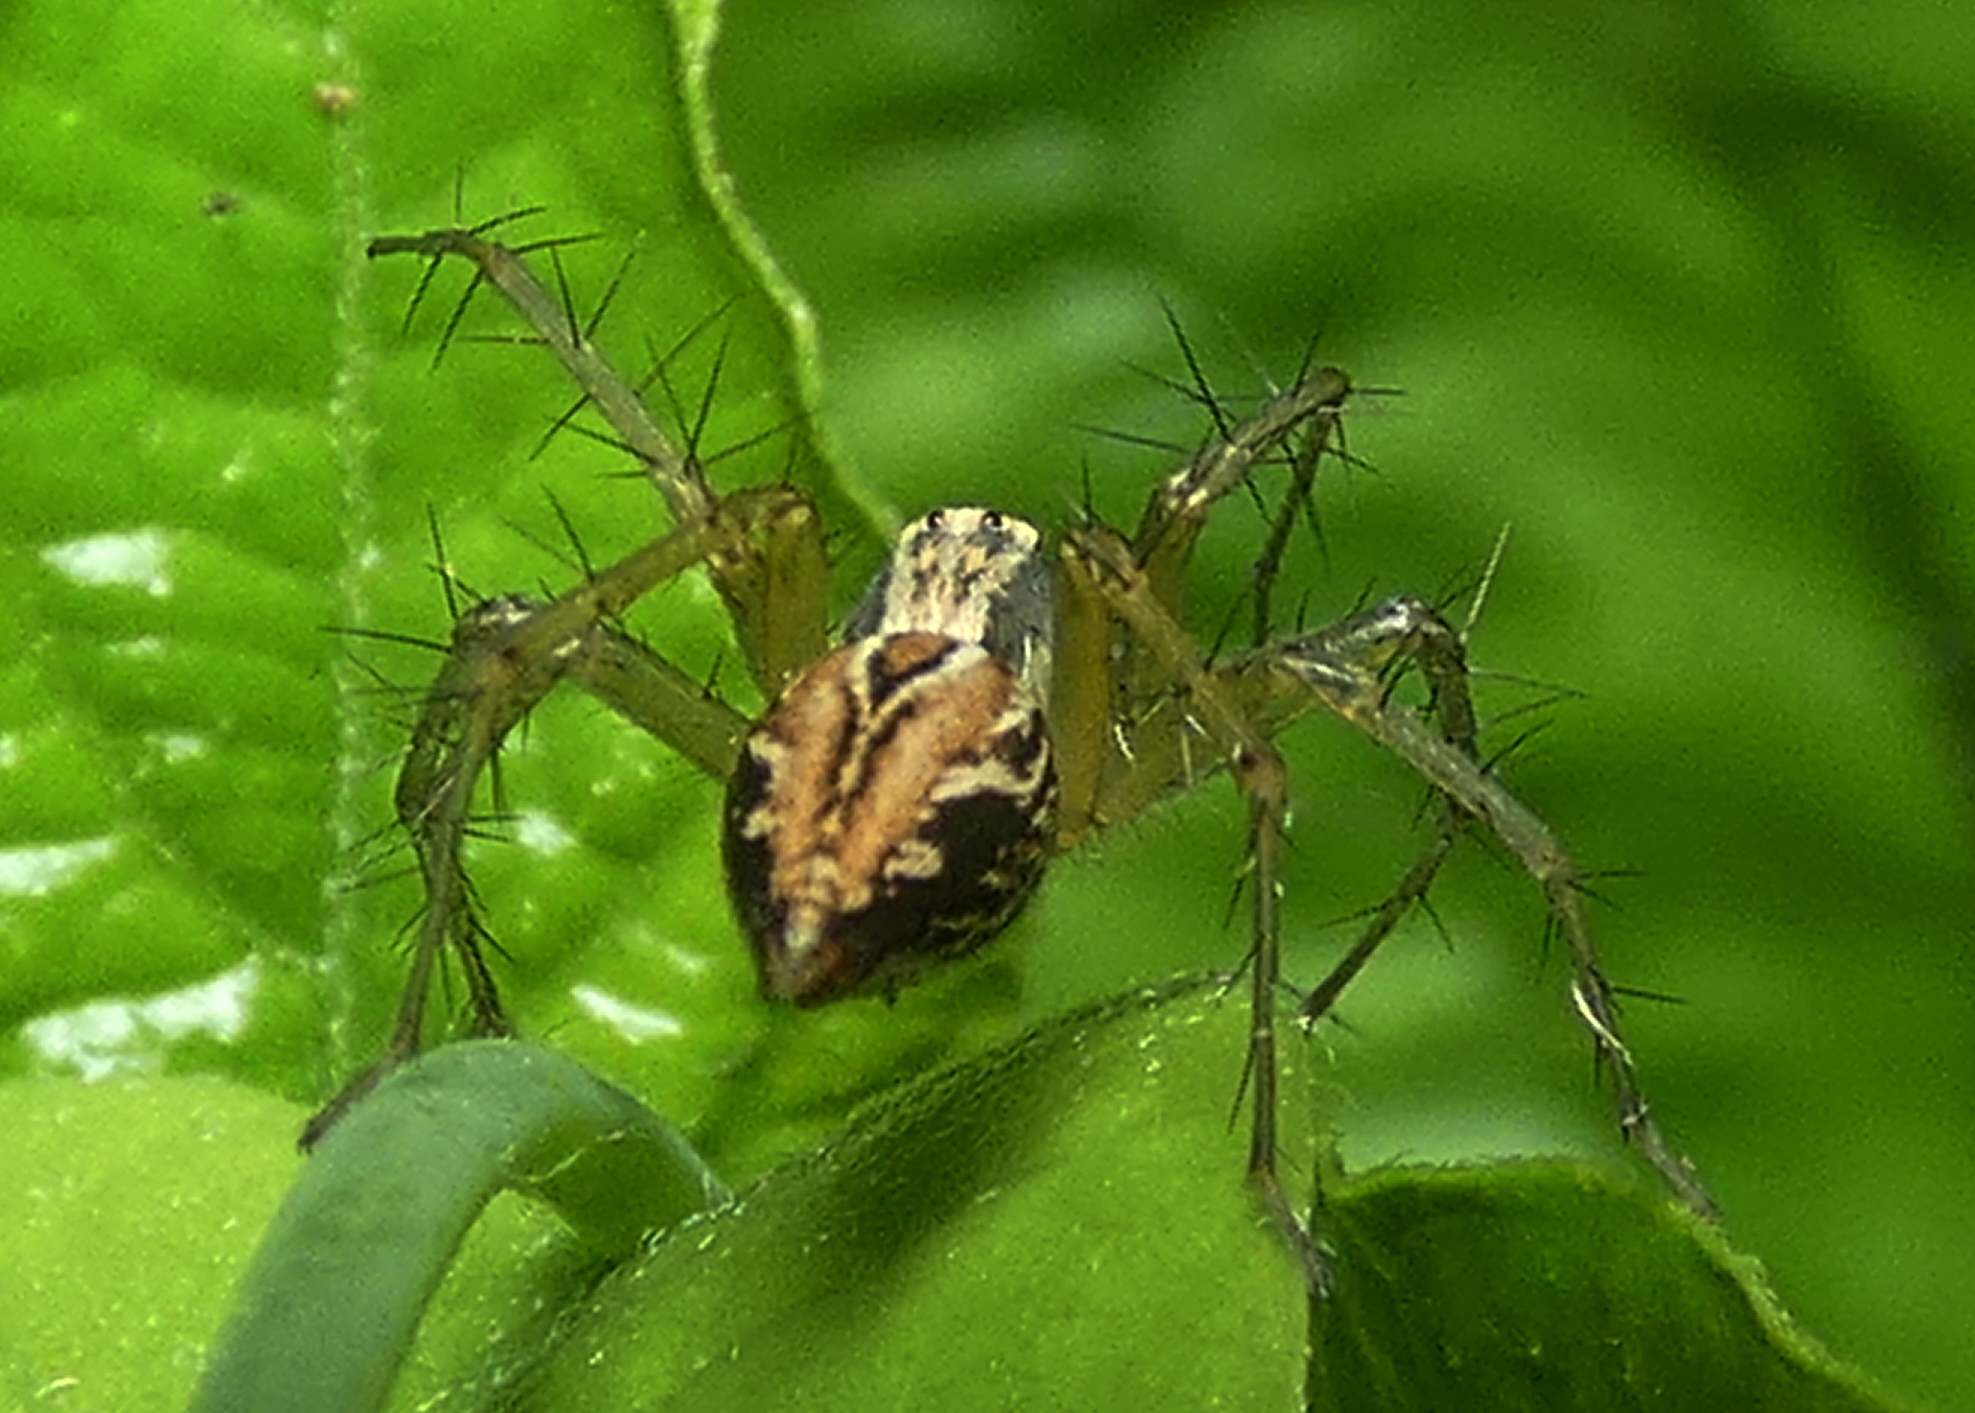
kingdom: Animalia
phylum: Arthropoda
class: Arachnida
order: Araneae
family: Oxyopidae
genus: Oxyopes
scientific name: Oxyopes salticus
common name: Lynx spiders
